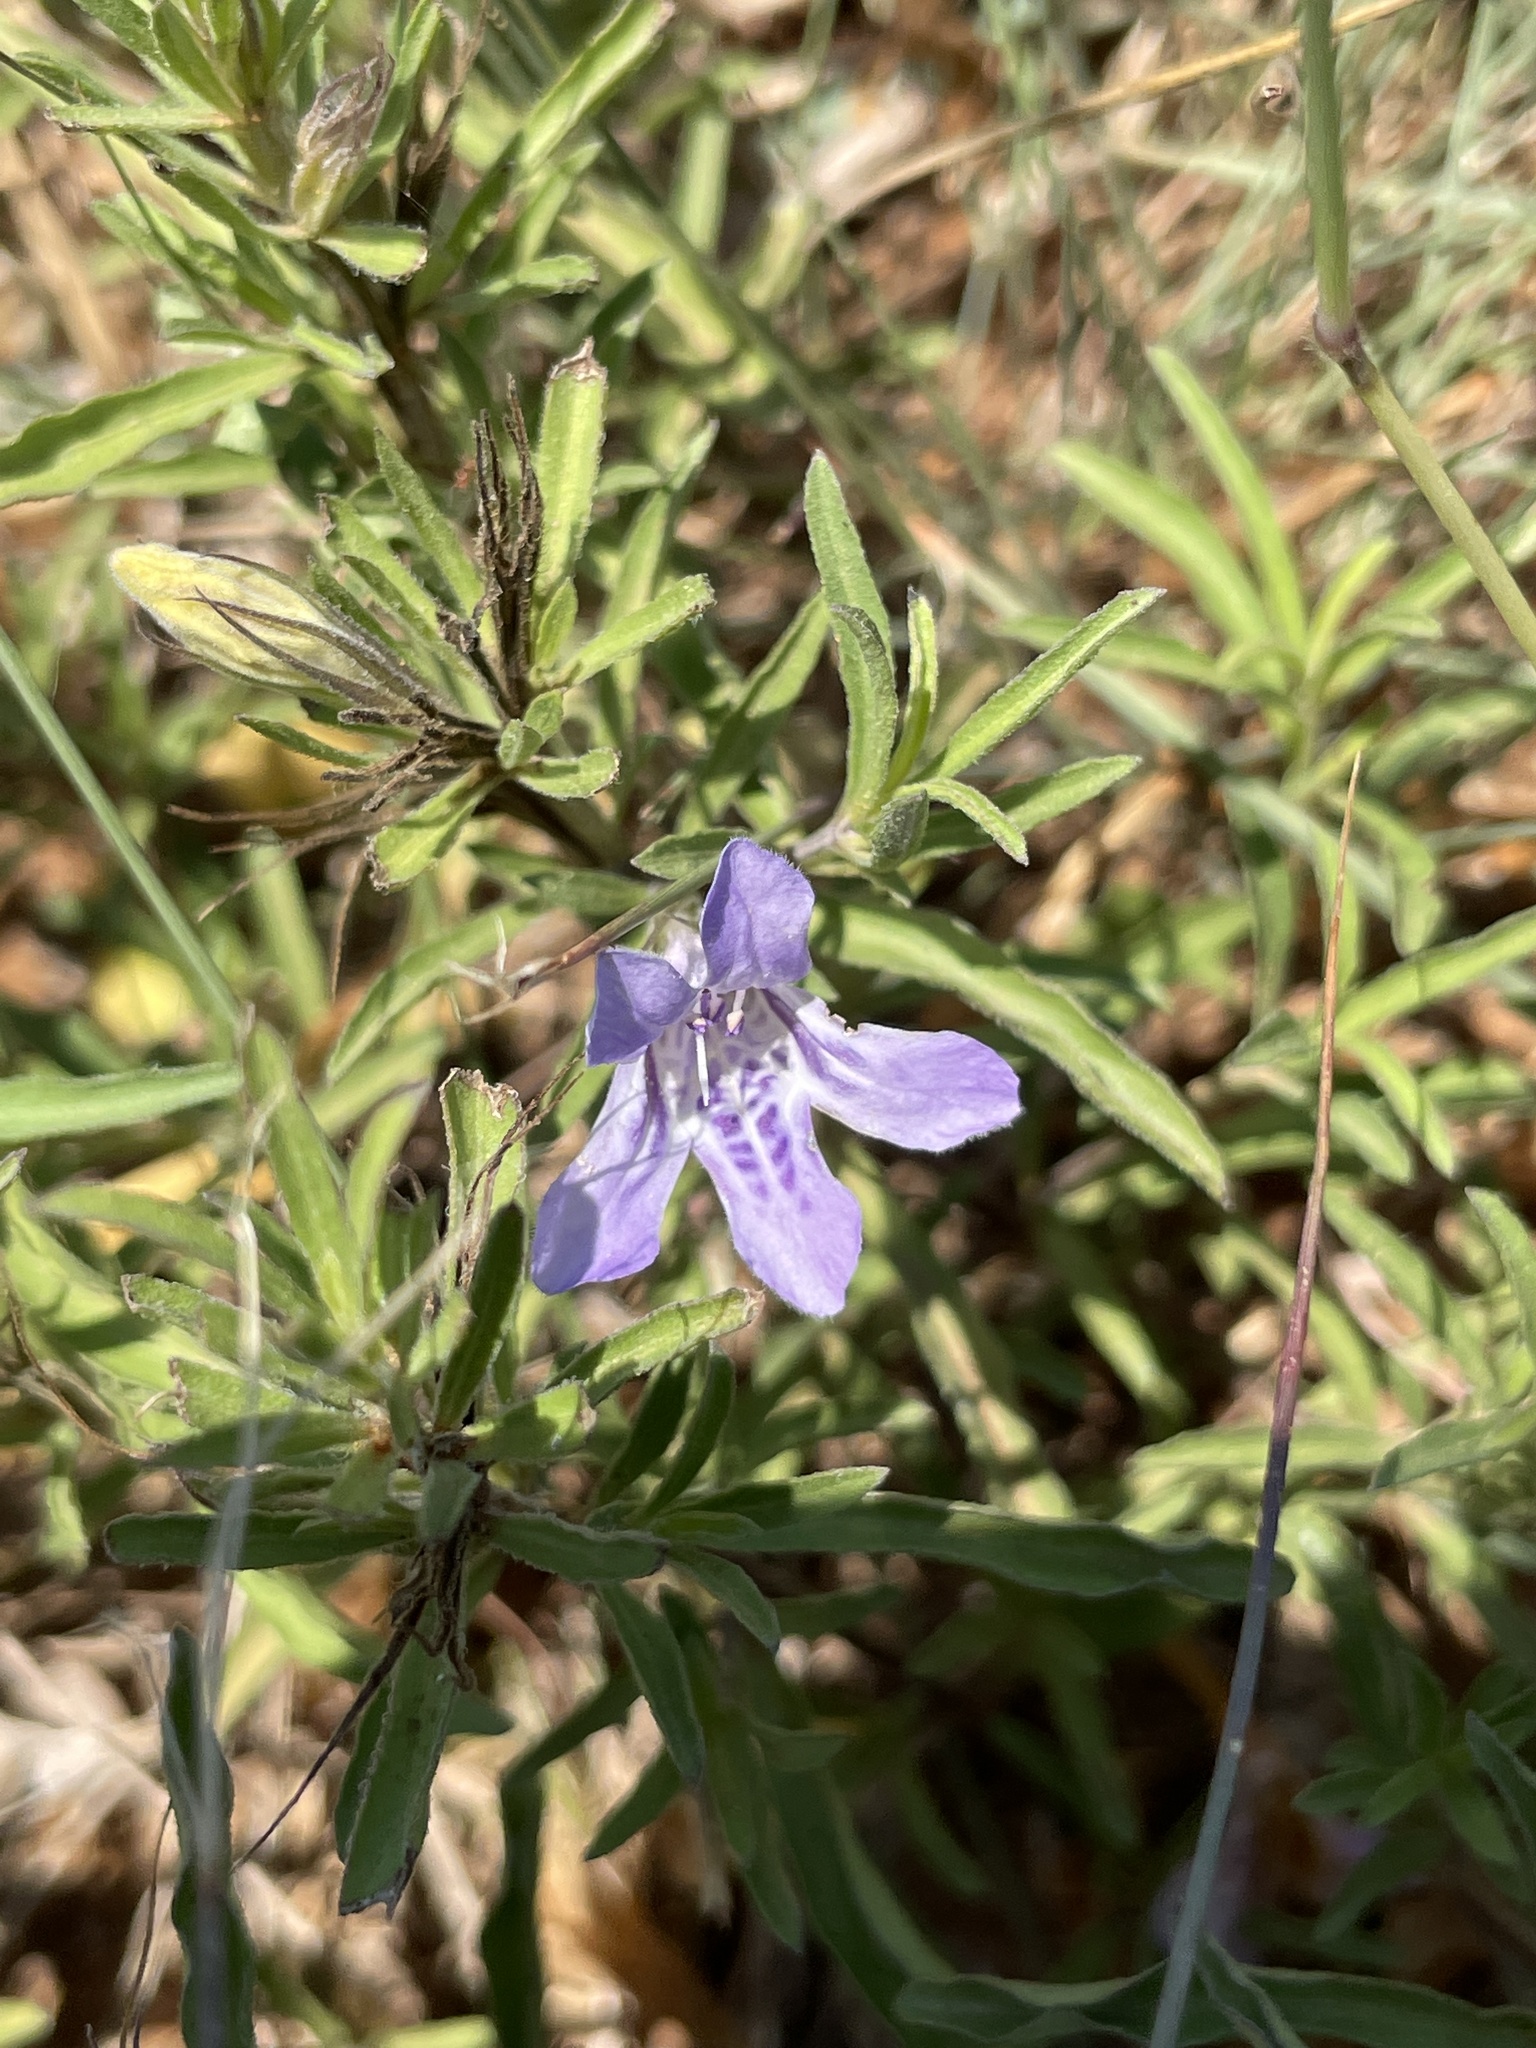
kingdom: Plantae
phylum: Tracheophyta
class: Magnoliopsida
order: Lamiales
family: Acanthaceae
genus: Dyschoriste
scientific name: Dyschoriste linearis
